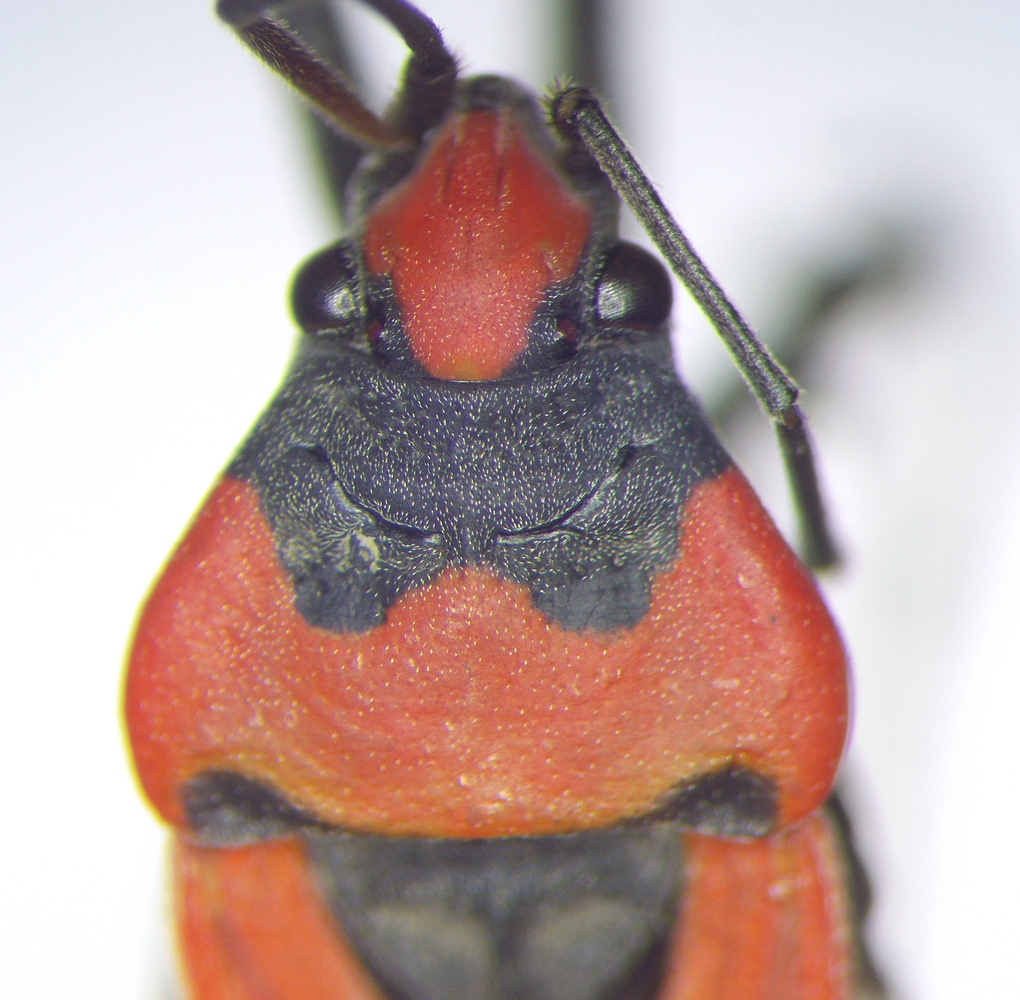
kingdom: Animalia
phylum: Arthropoda
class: Insecta
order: Hemiptera
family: Lygaeidae
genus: Lygaeus
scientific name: Lygaeus simulans
